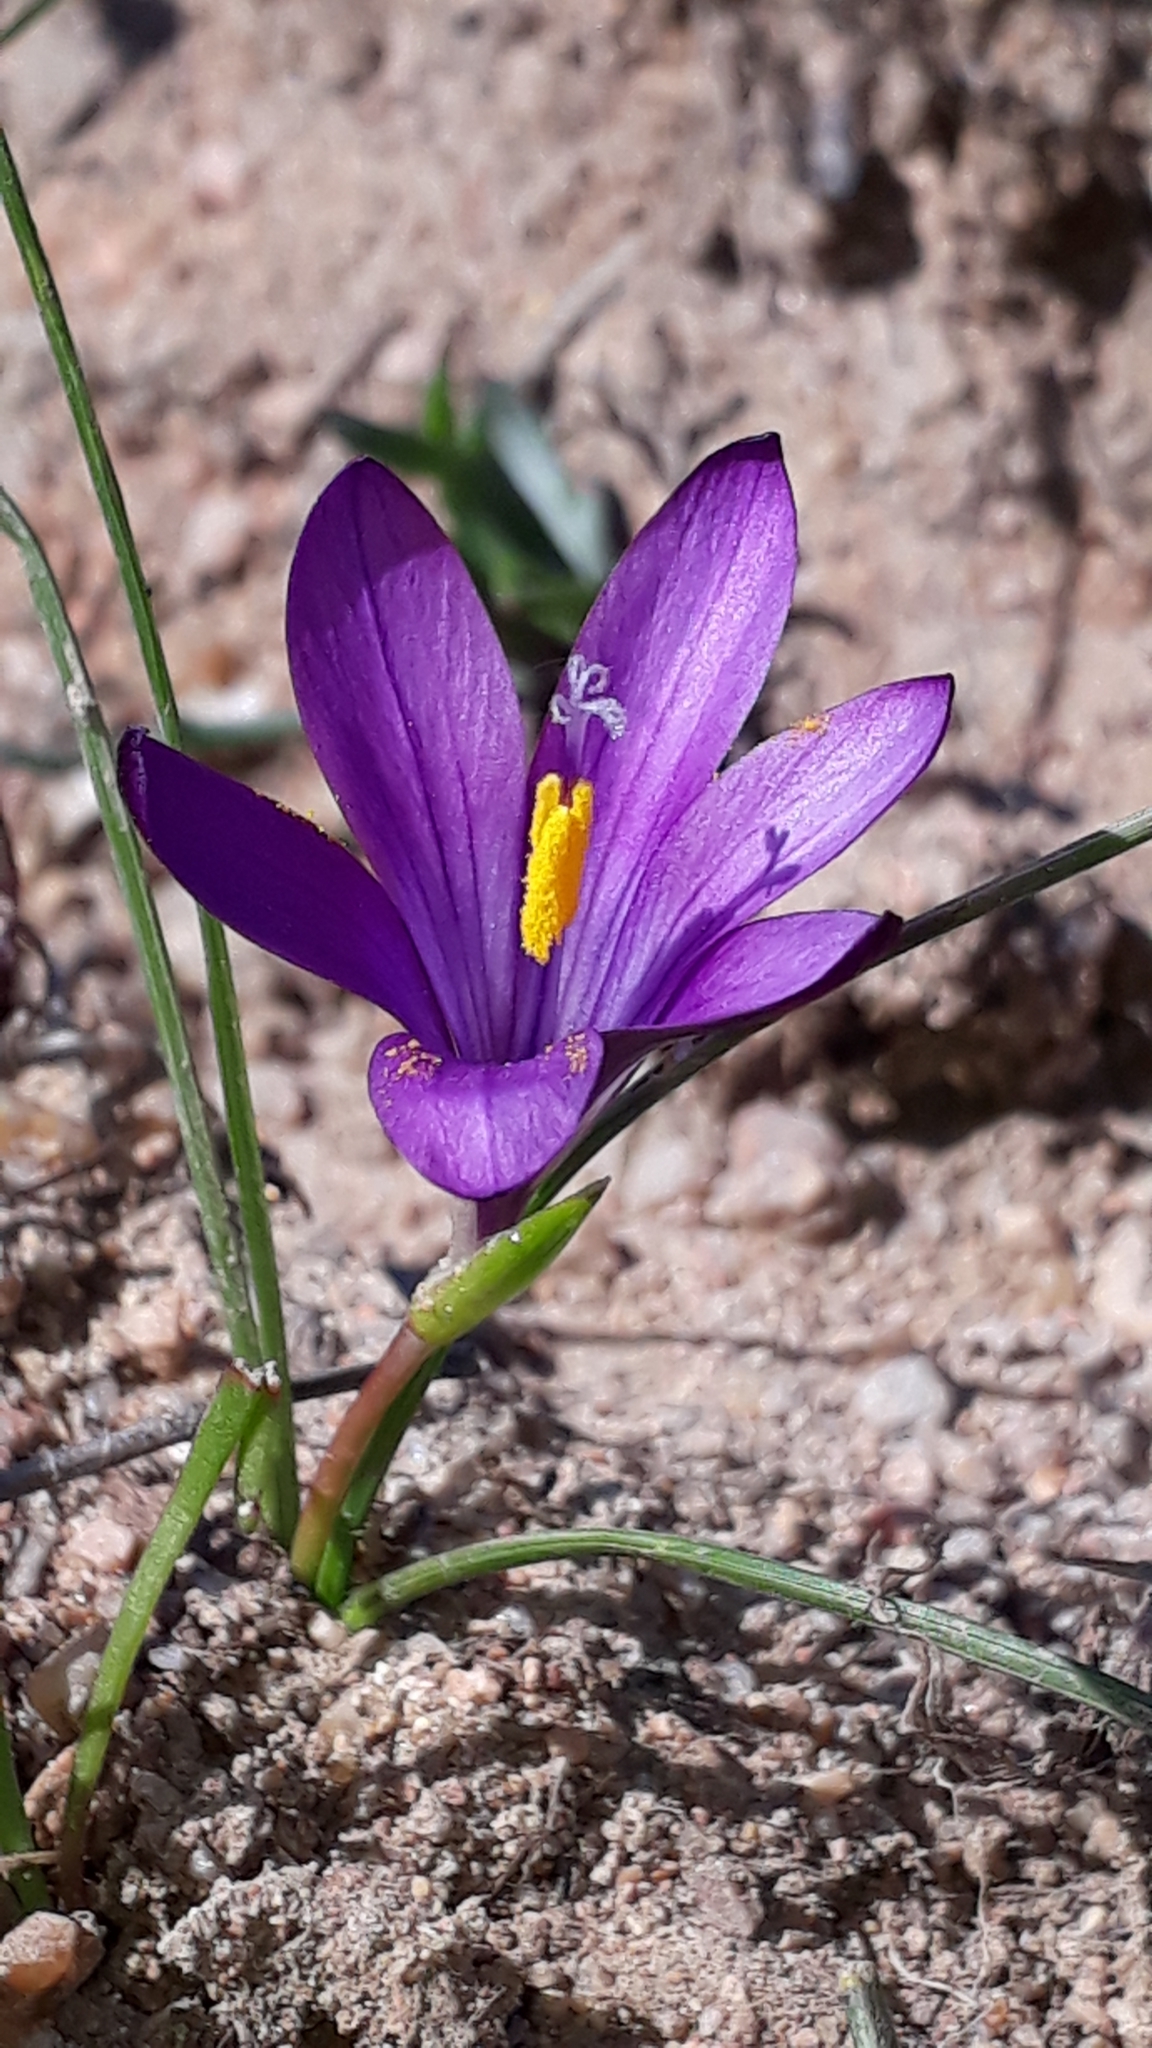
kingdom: Plantae
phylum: Tracheophyta
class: Liliopsida
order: Asparagales
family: Iridaceae
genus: Romulea
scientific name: Romulea requienii
